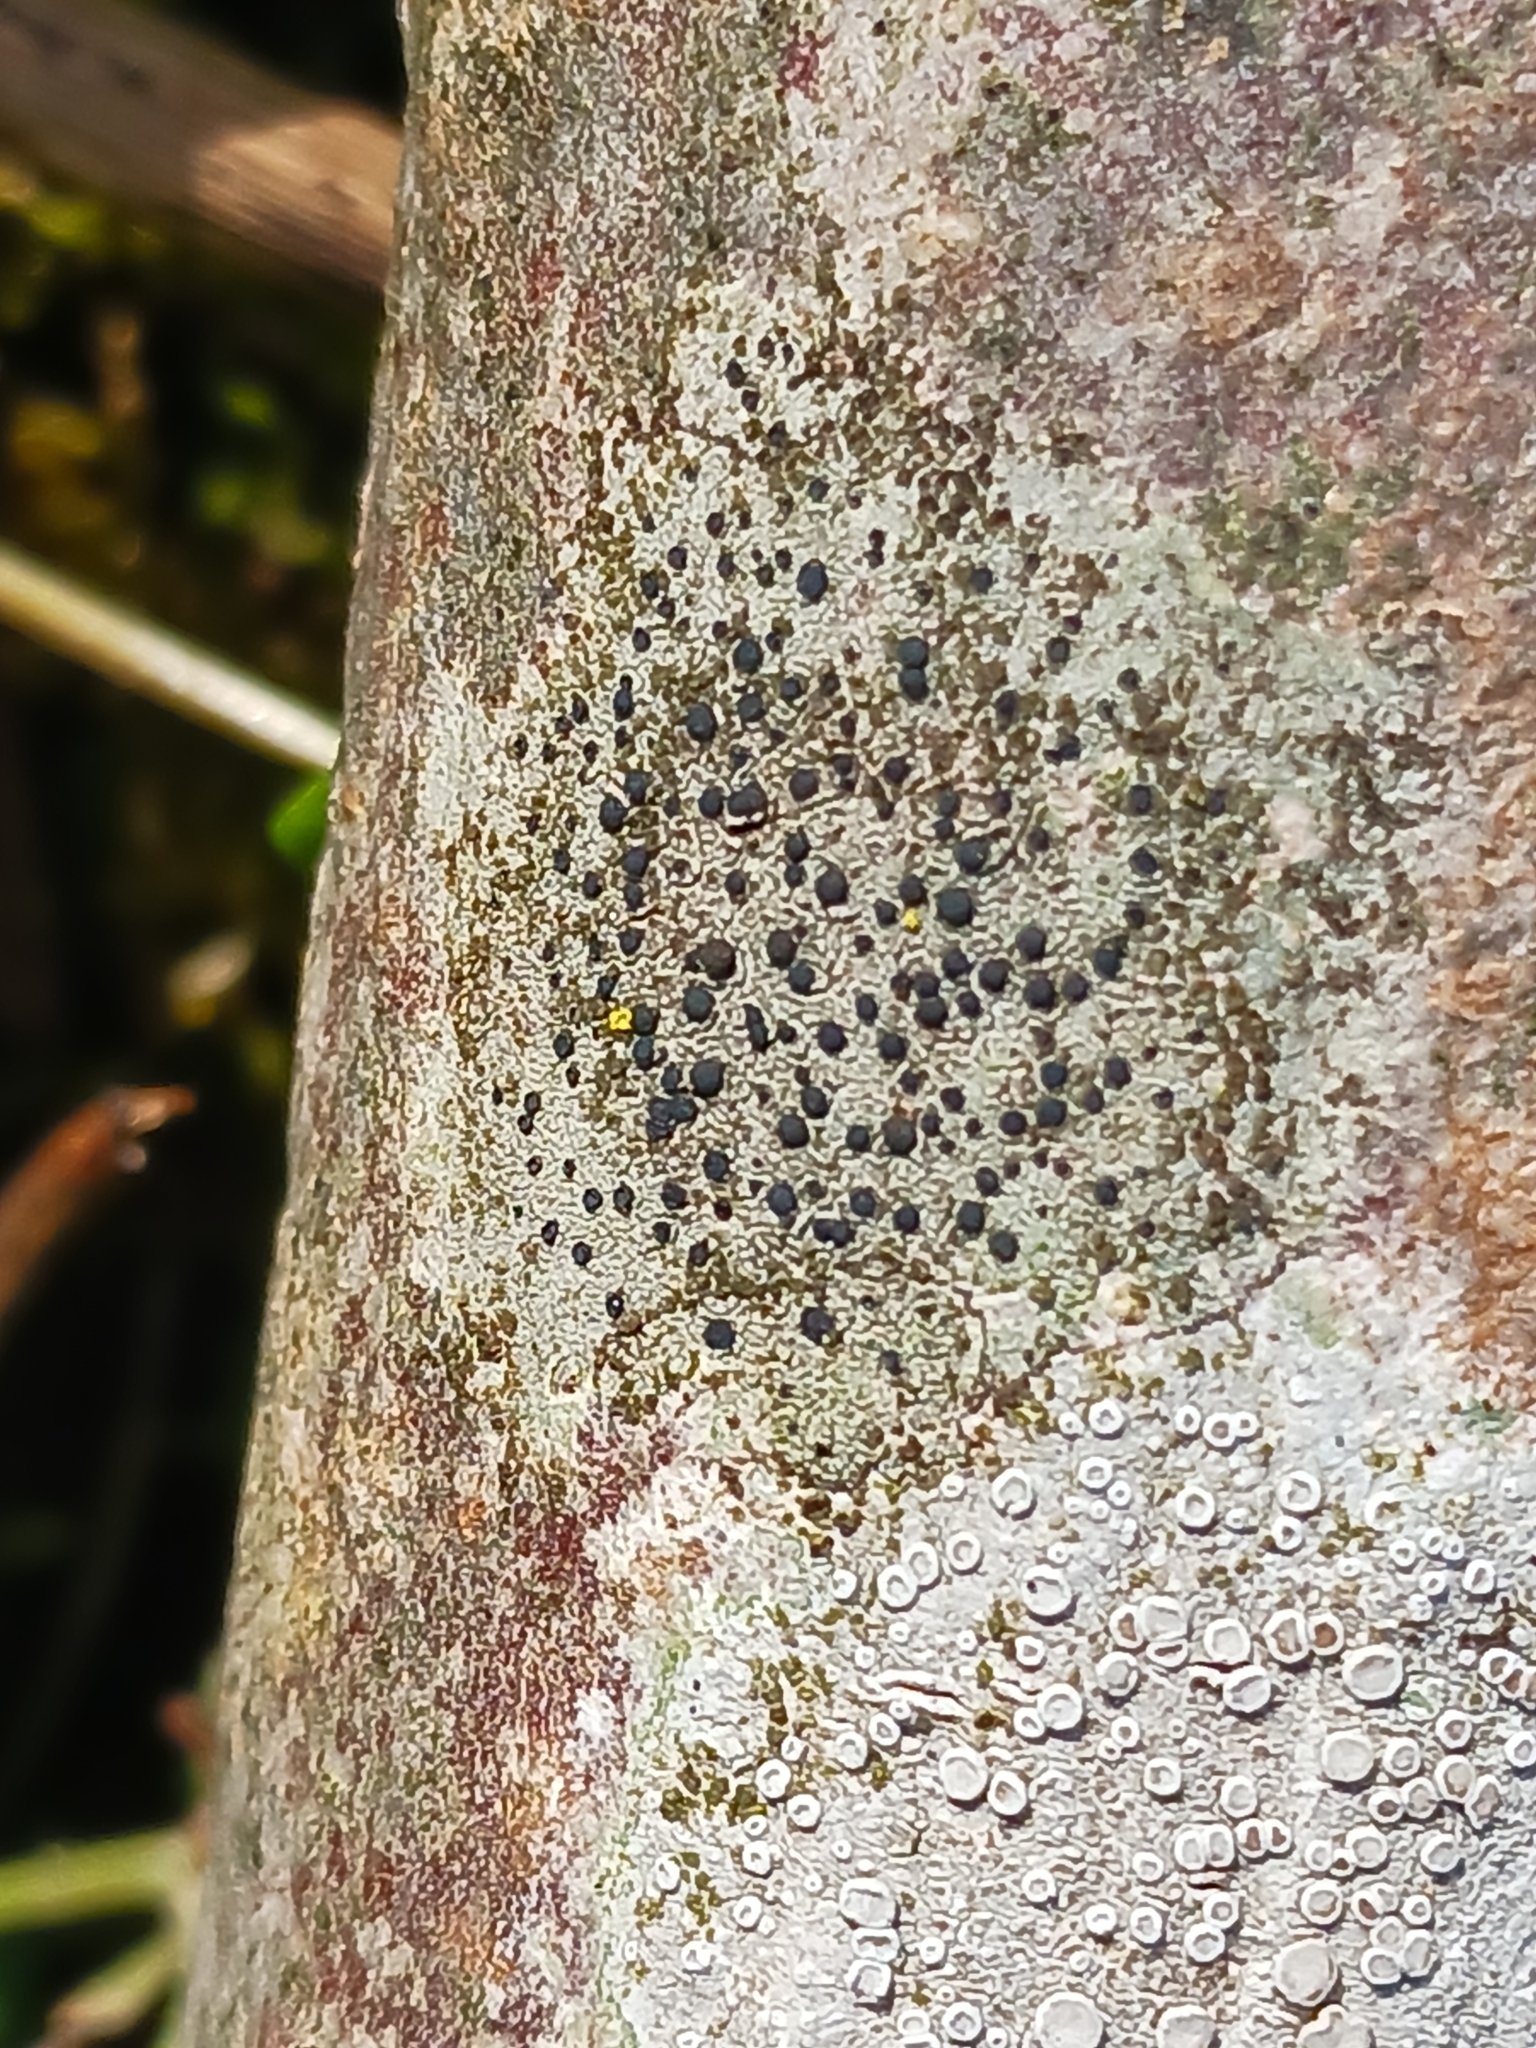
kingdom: Fungi
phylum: Ascomycota
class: Lecanoromycetes
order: Lecanorales
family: Lecanoraceae
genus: Lecidella
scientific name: Lecidella elaeochroma
